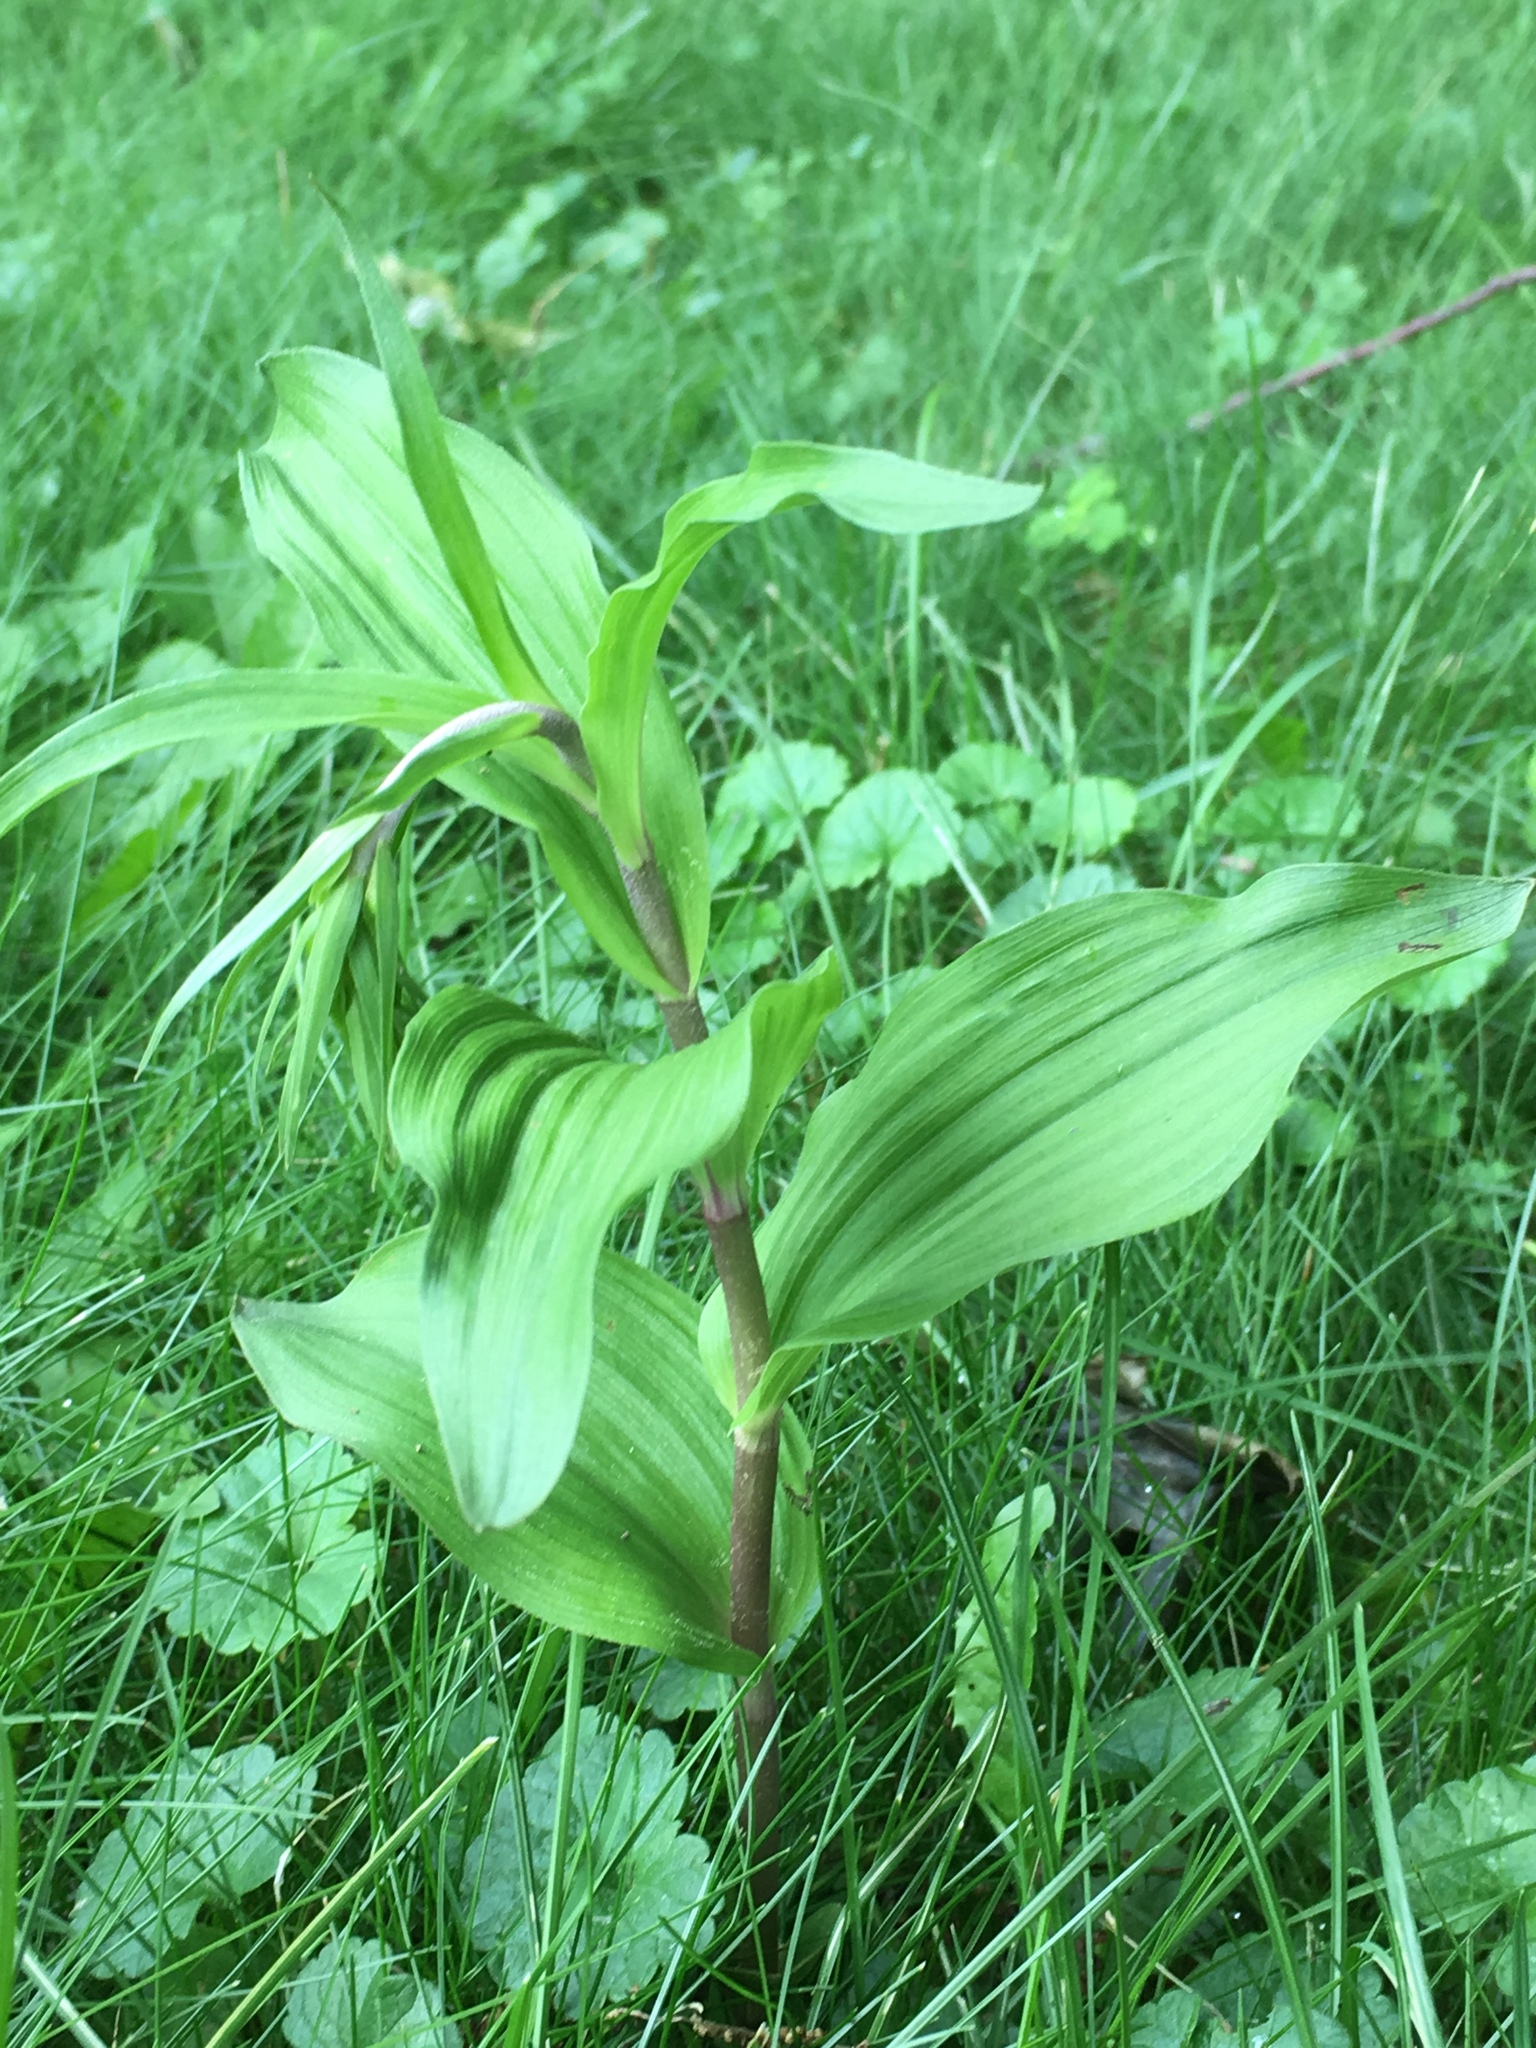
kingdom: Plantae
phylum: Tracheophyta
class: Liliopsida
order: Asparagales
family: Orchidaceae
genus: Epipactis
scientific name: Epipactis helleborine
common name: Broad-leaved helleborine
